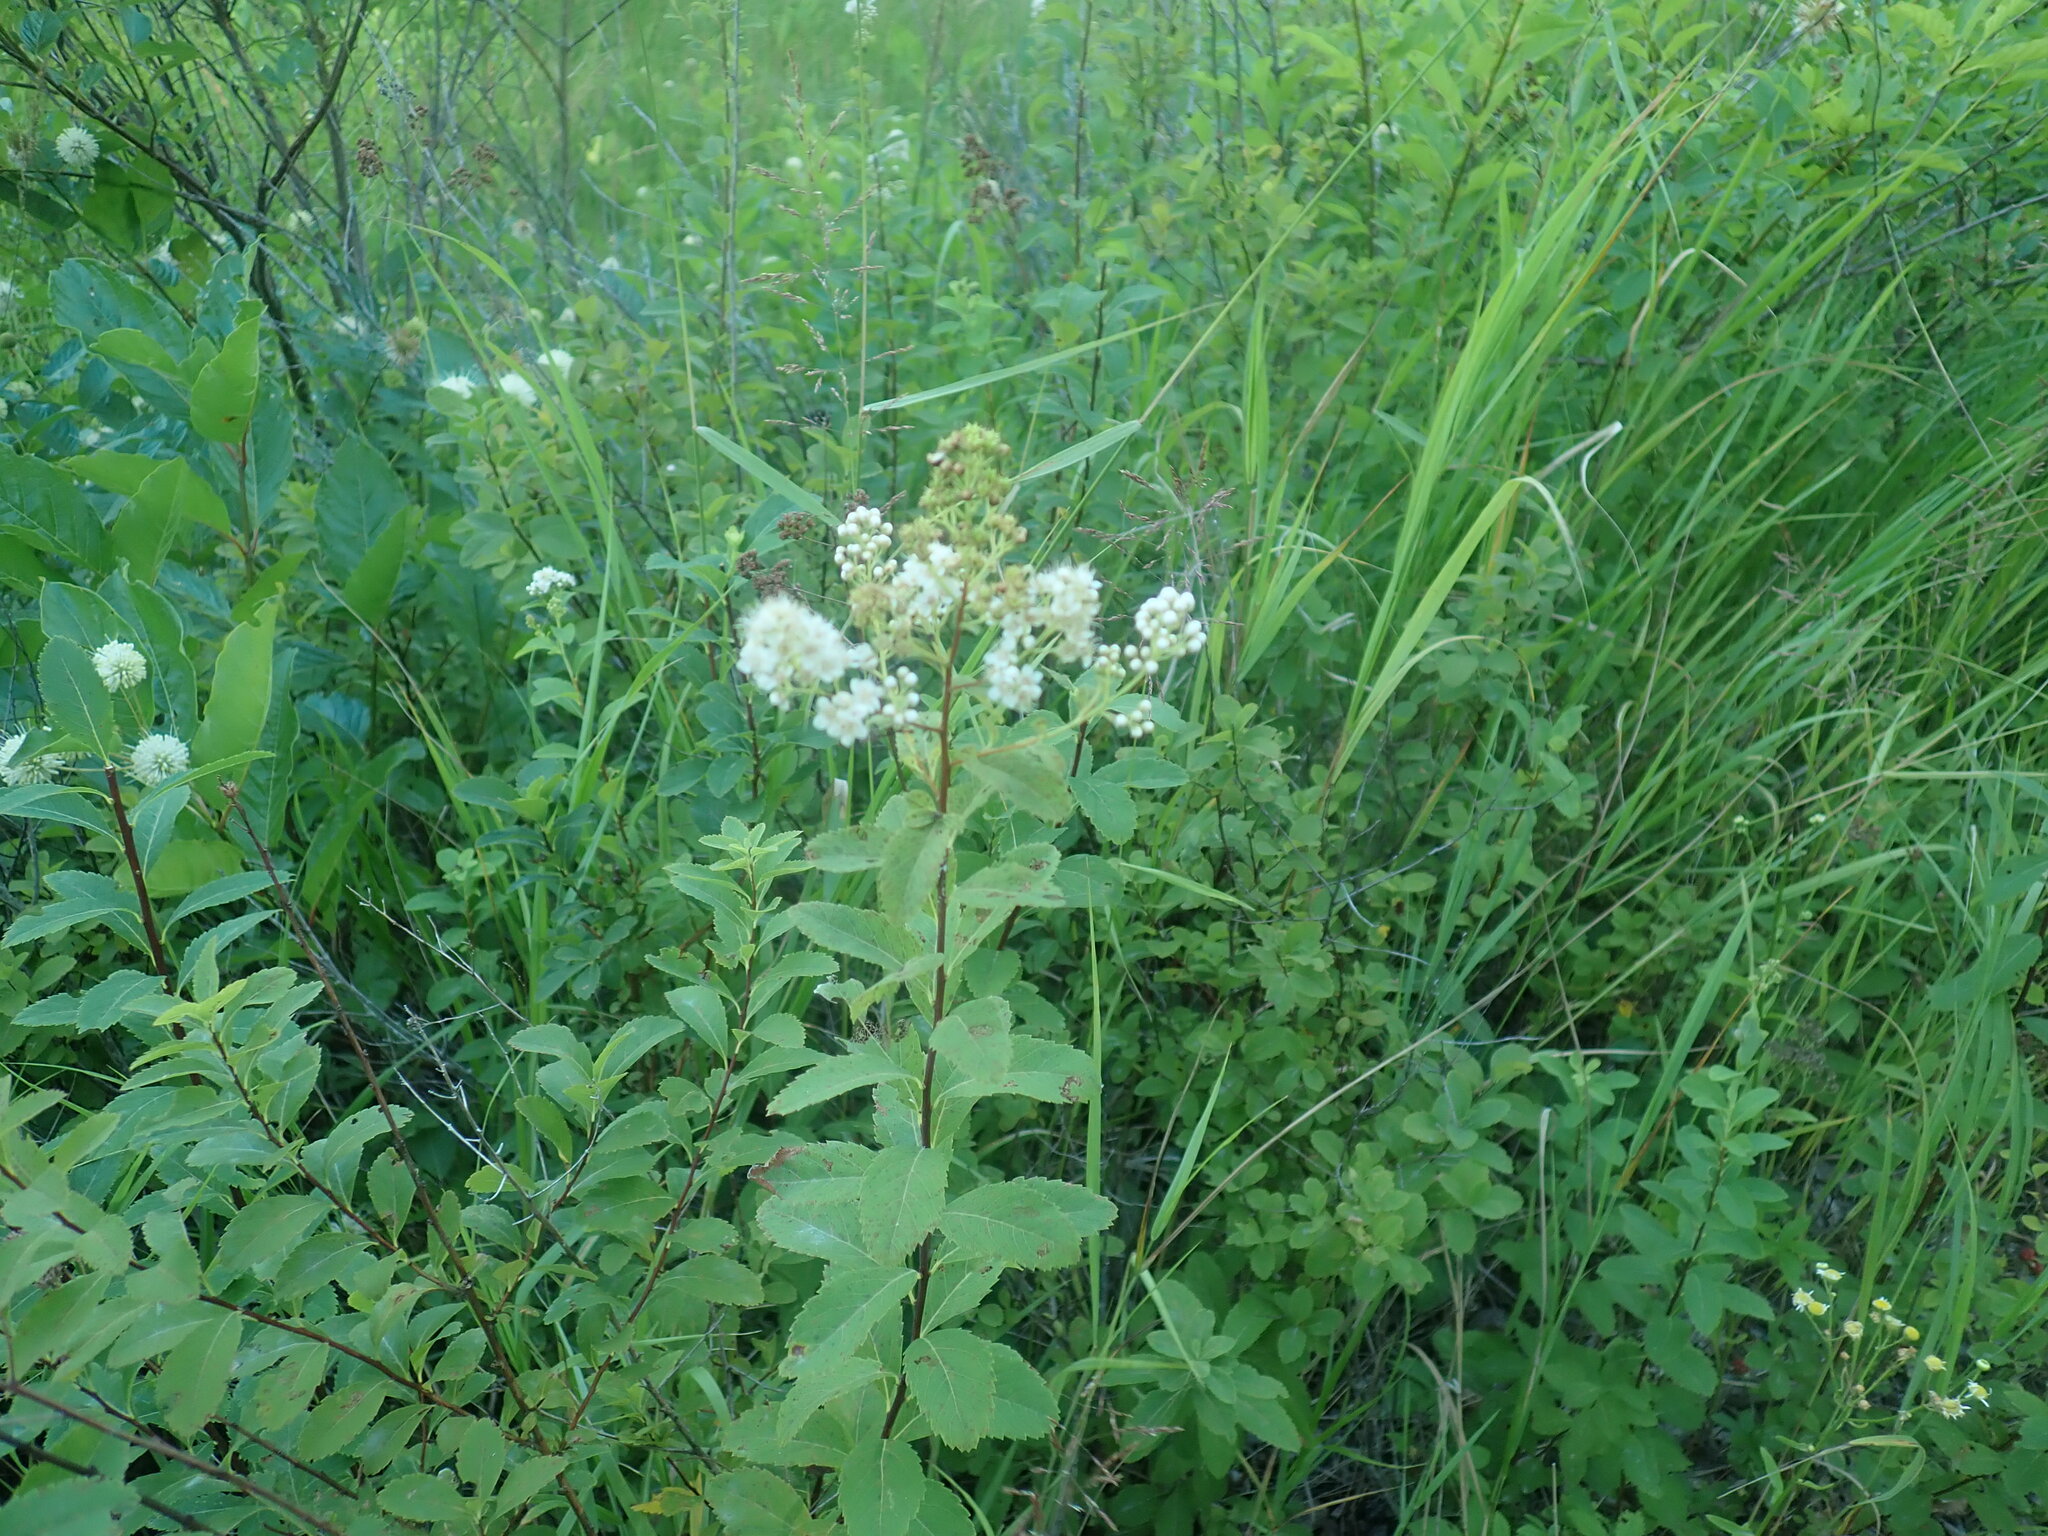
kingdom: Plantae
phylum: Tracheophyta
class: Magnoliopsida
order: Rosales
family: Rosaceae
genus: Spiraea
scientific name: Spiraea alba
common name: Pale bridewort
